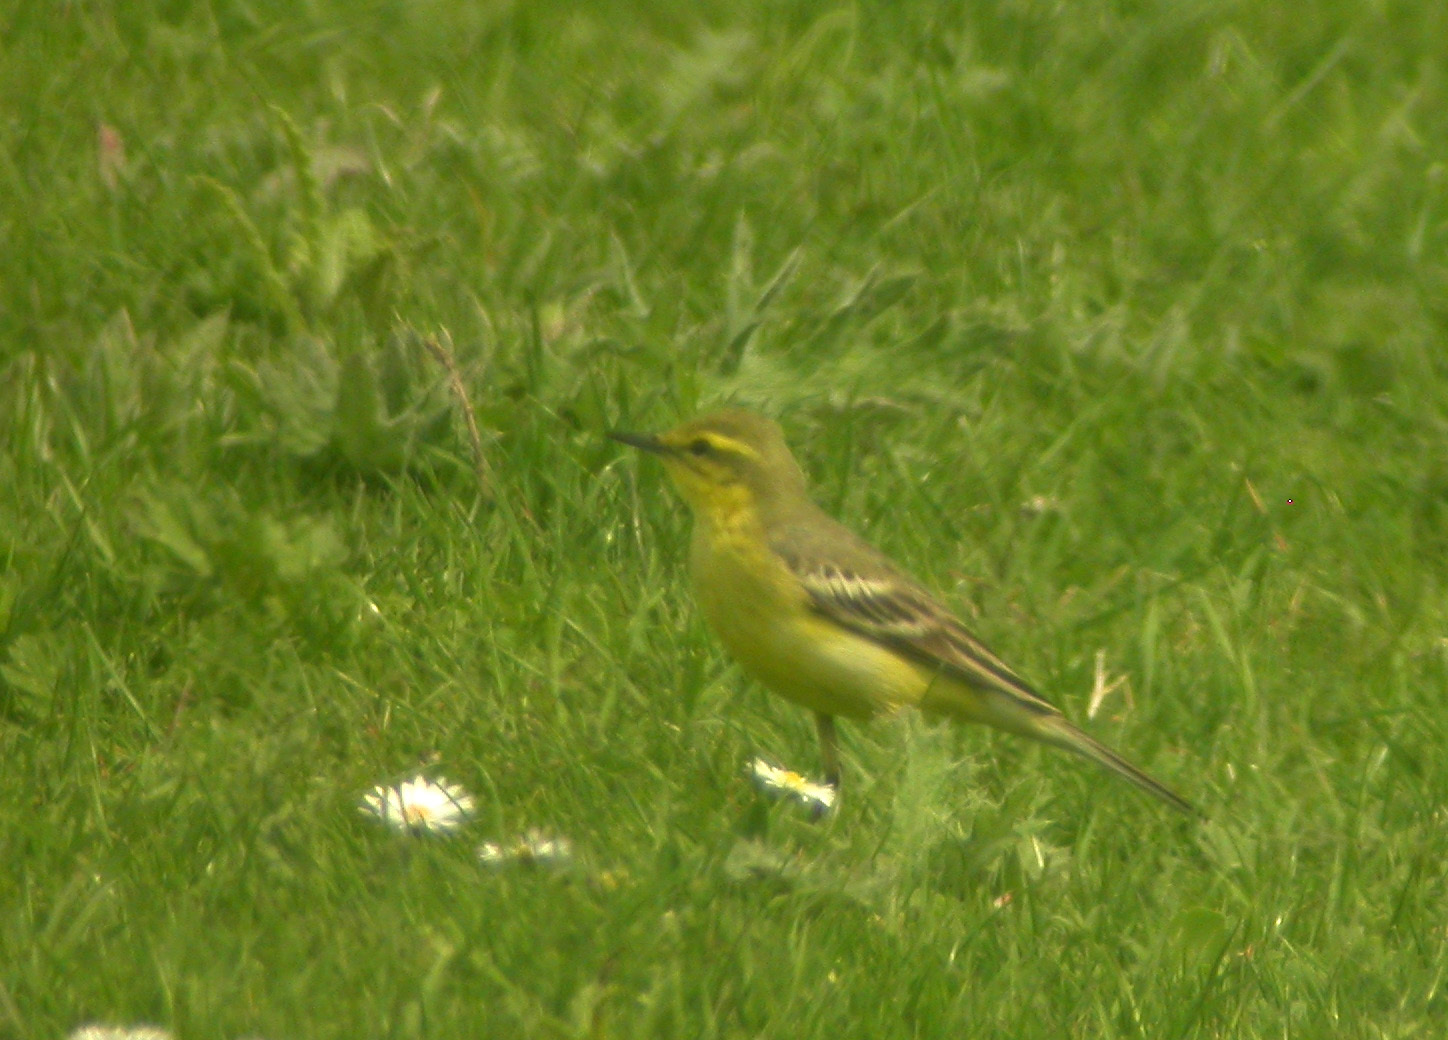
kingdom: Animalia
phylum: Chordata
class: Aves
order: Passeriformes
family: Motacillidae
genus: Motacilla
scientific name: Motacilla flava
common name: Western yellow wagtail
